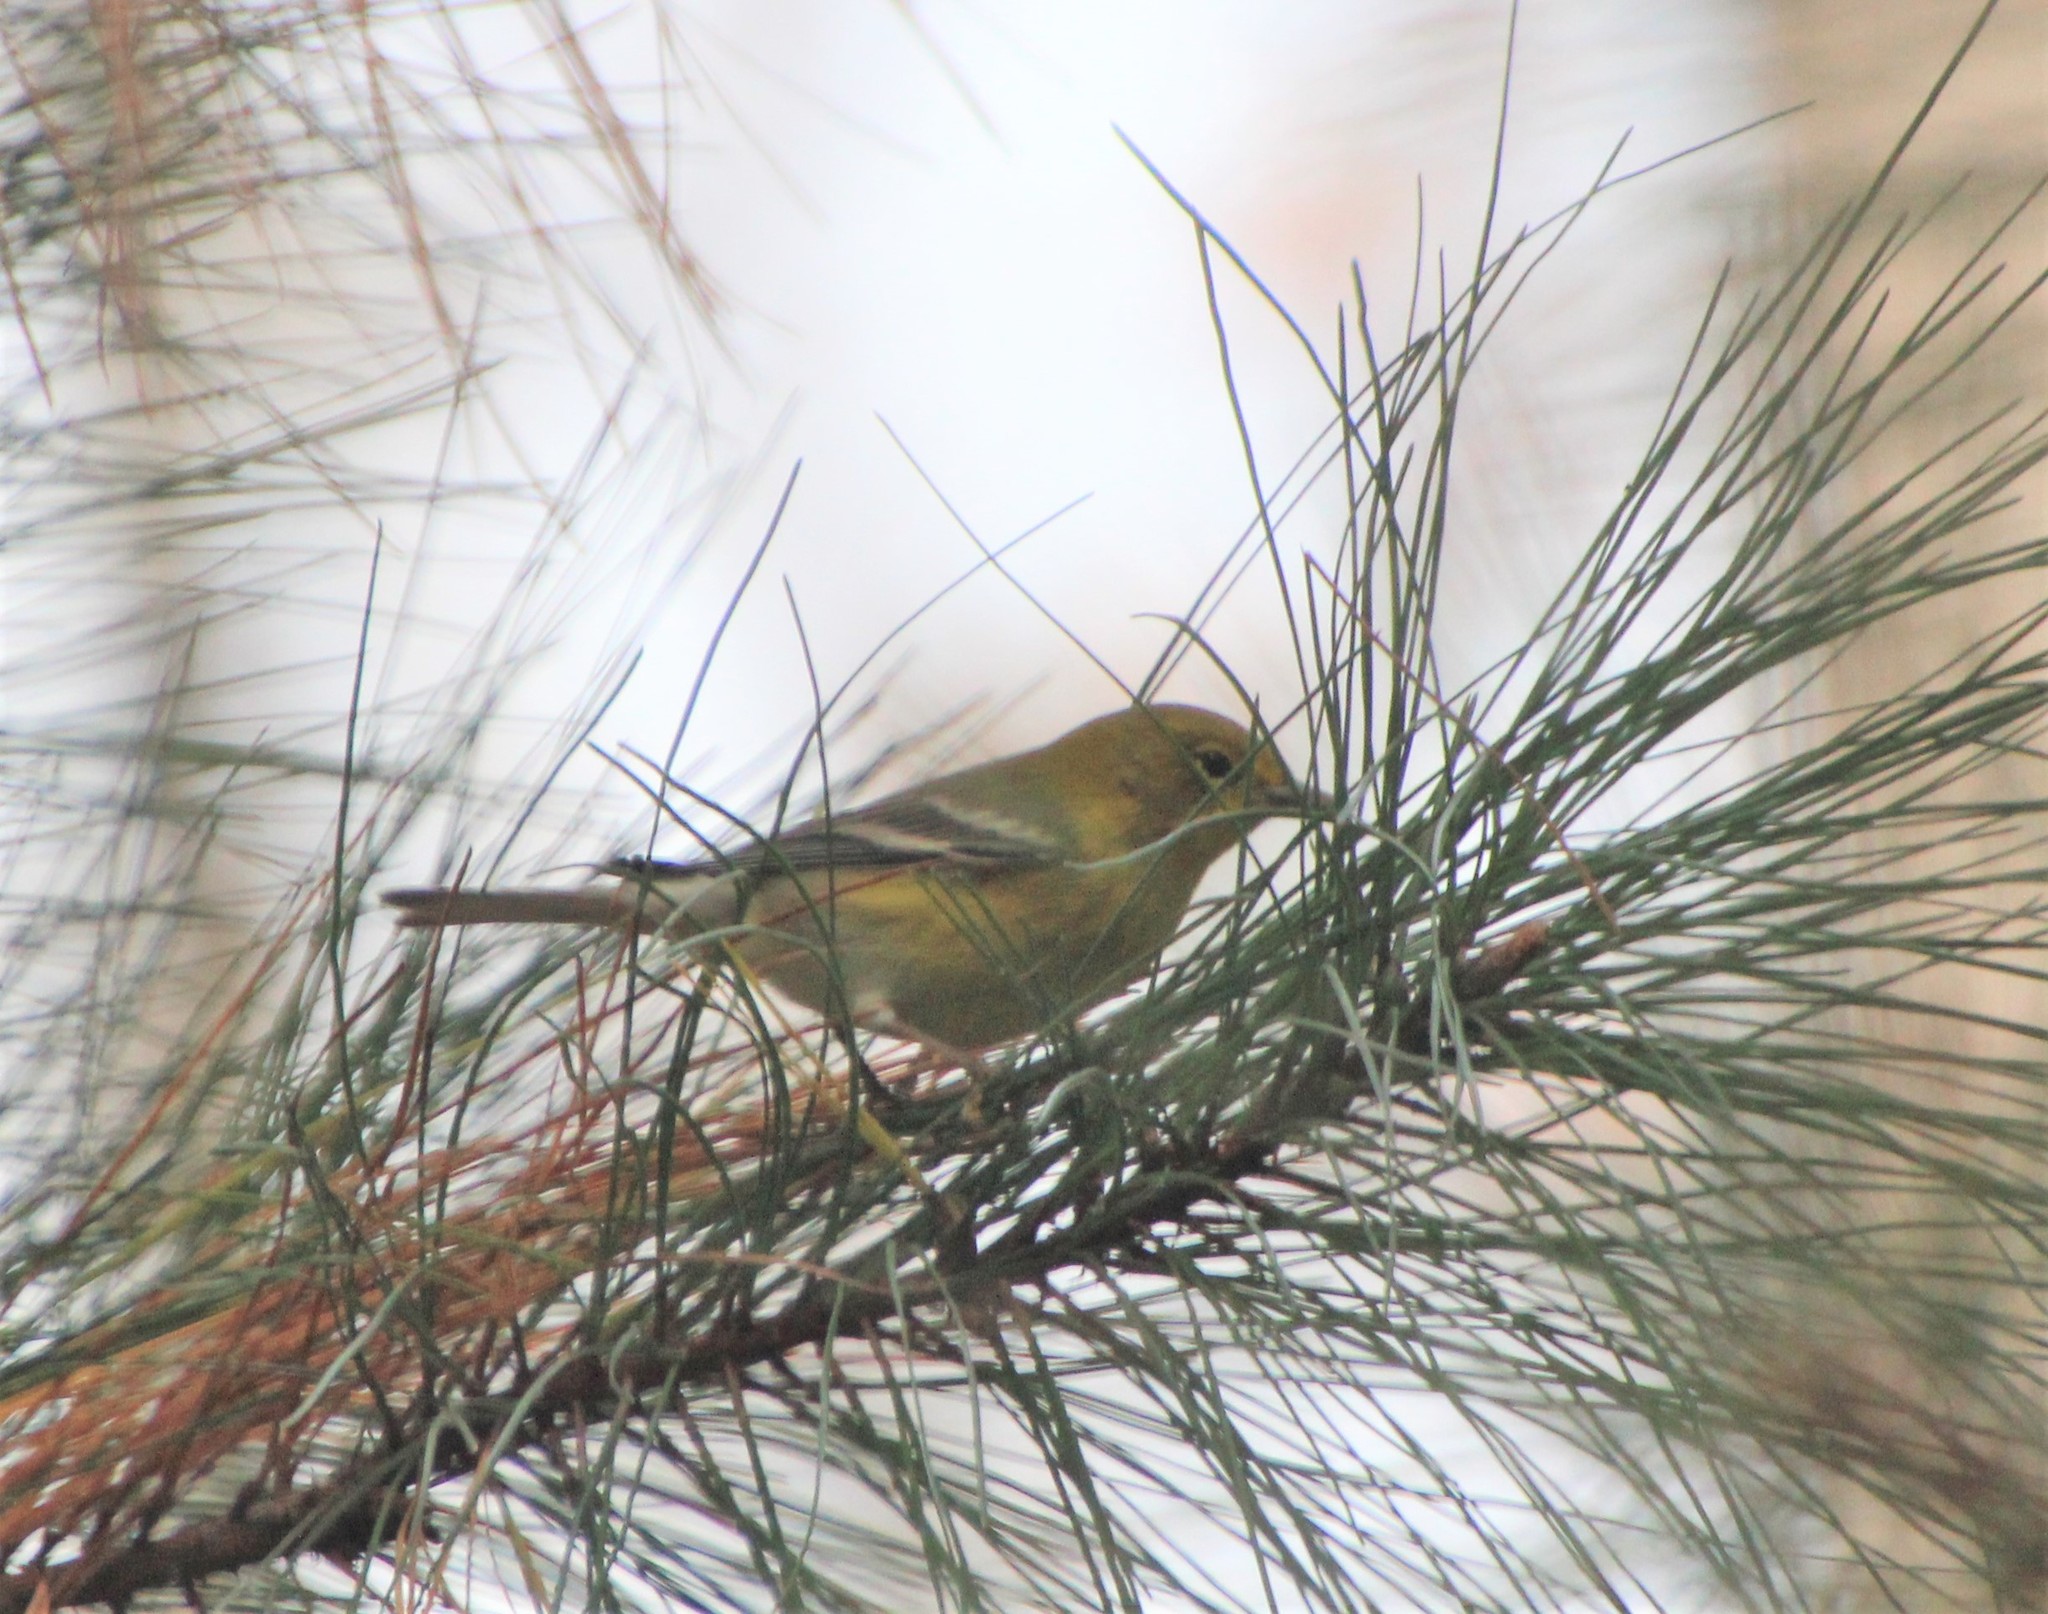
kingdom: Animalia
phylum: Chordata
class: Aves
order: Passeriformes
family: Parulidae
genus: Setophaga
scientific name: Setophaga pinus
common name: Pine warbler
